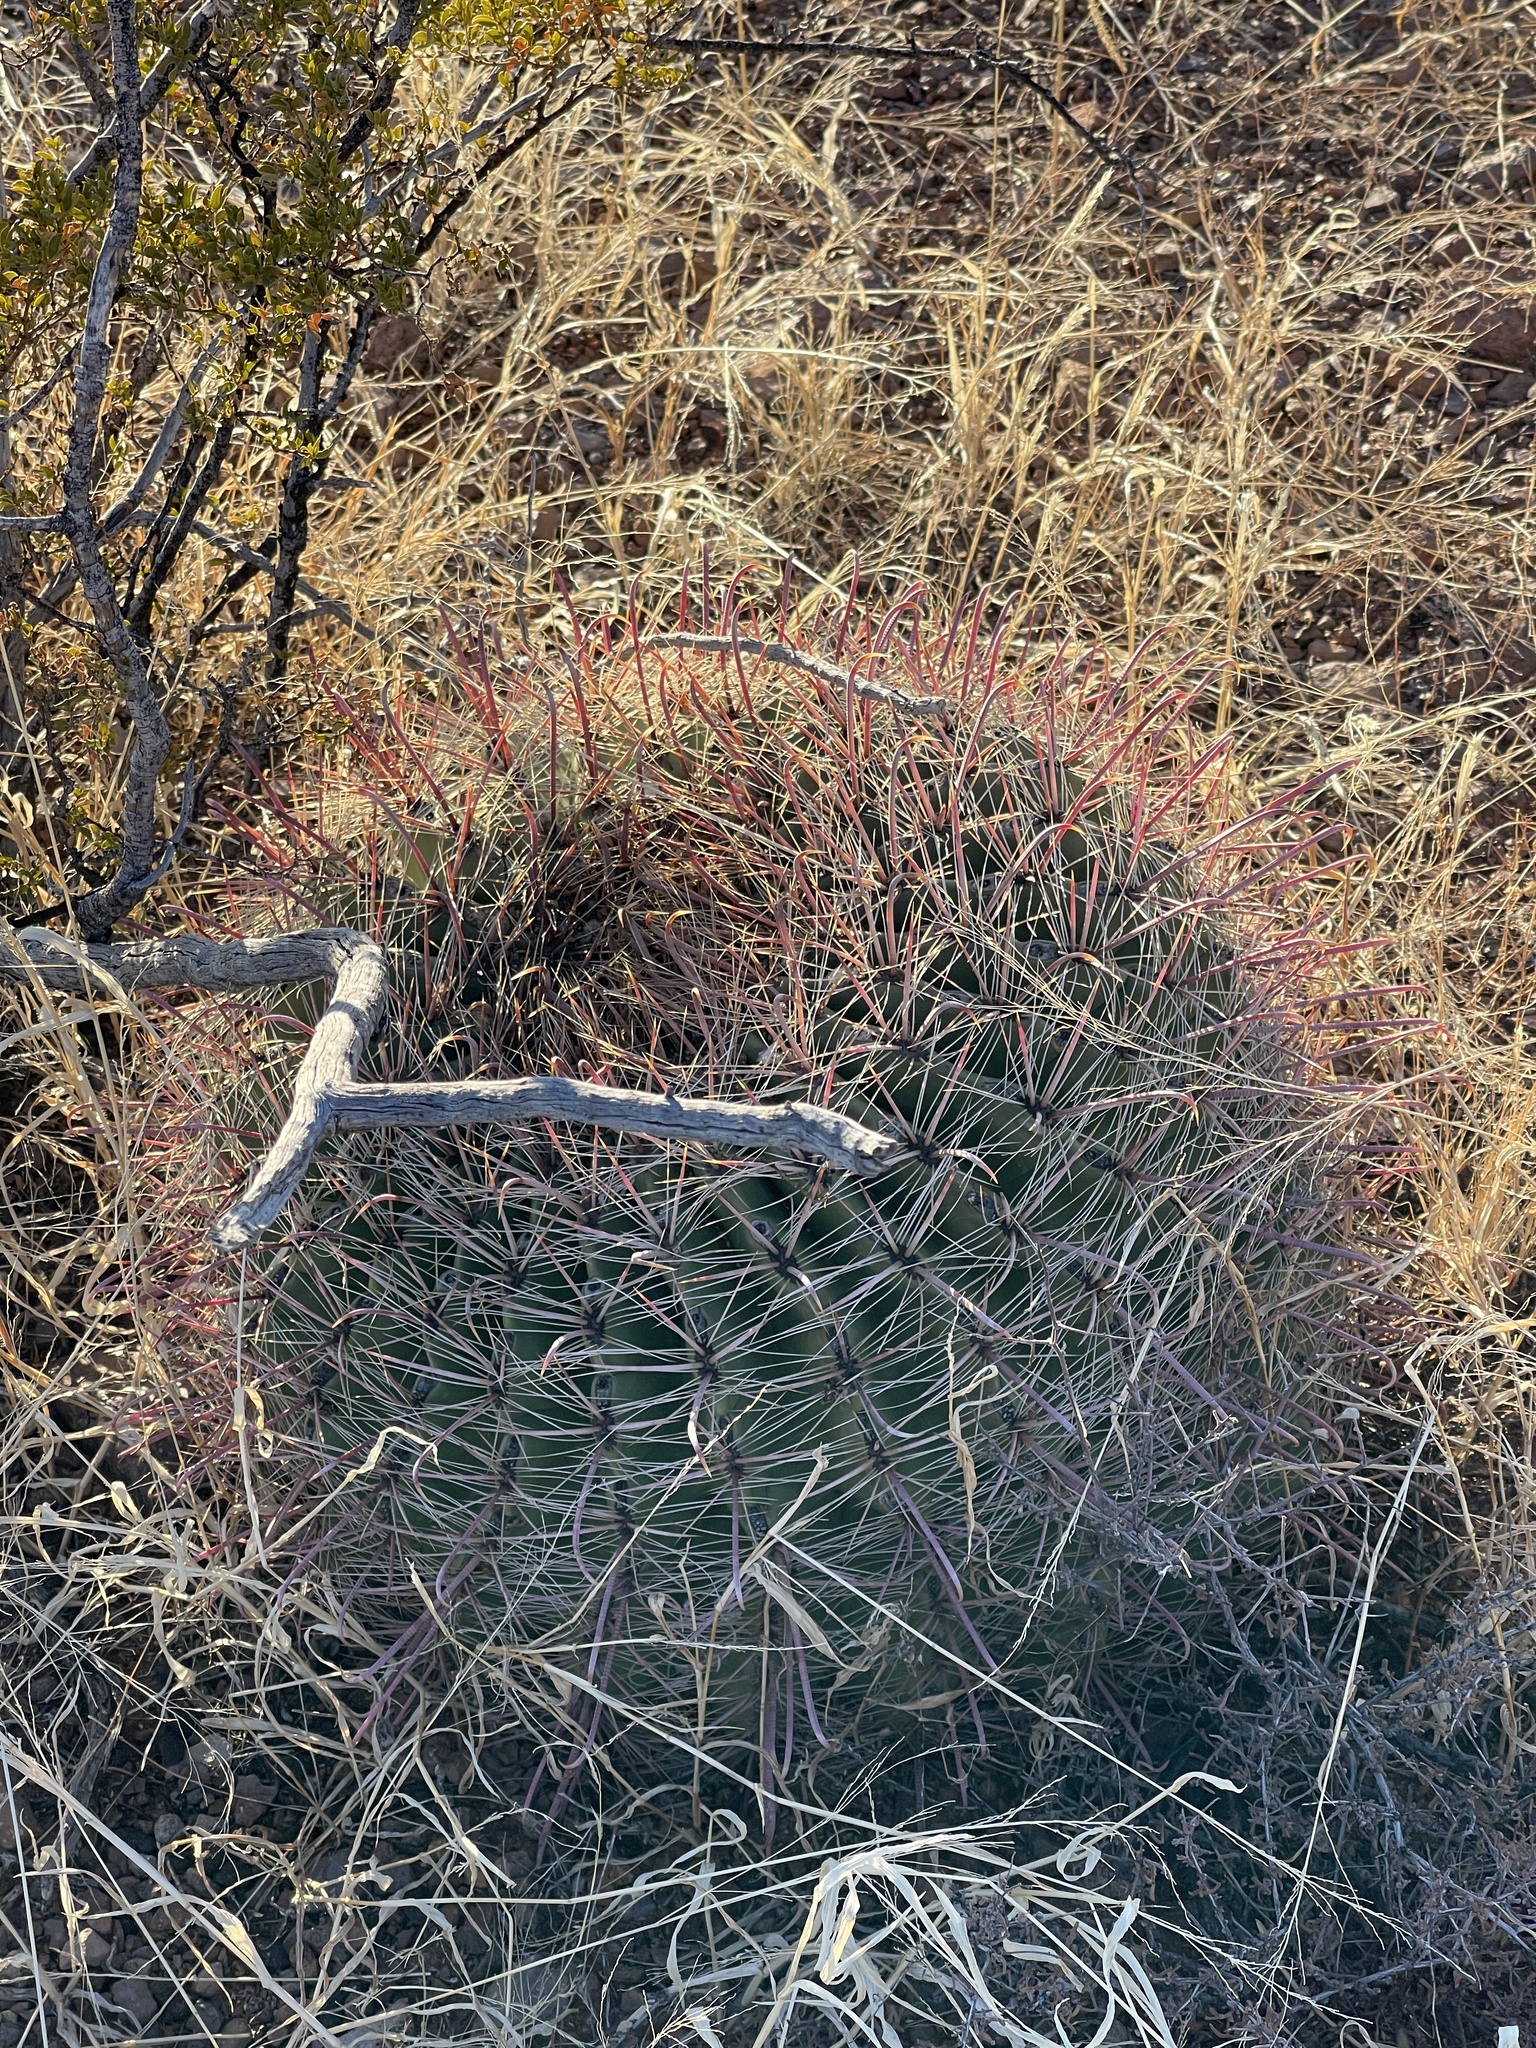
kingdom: Plantae
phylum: Tracheophyta
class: Magnoliopsida
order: Caryophyllales
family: Cactaceae
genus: Ferocactus
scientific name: Ferocactus wislizeni
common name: Candy barrel cactus
